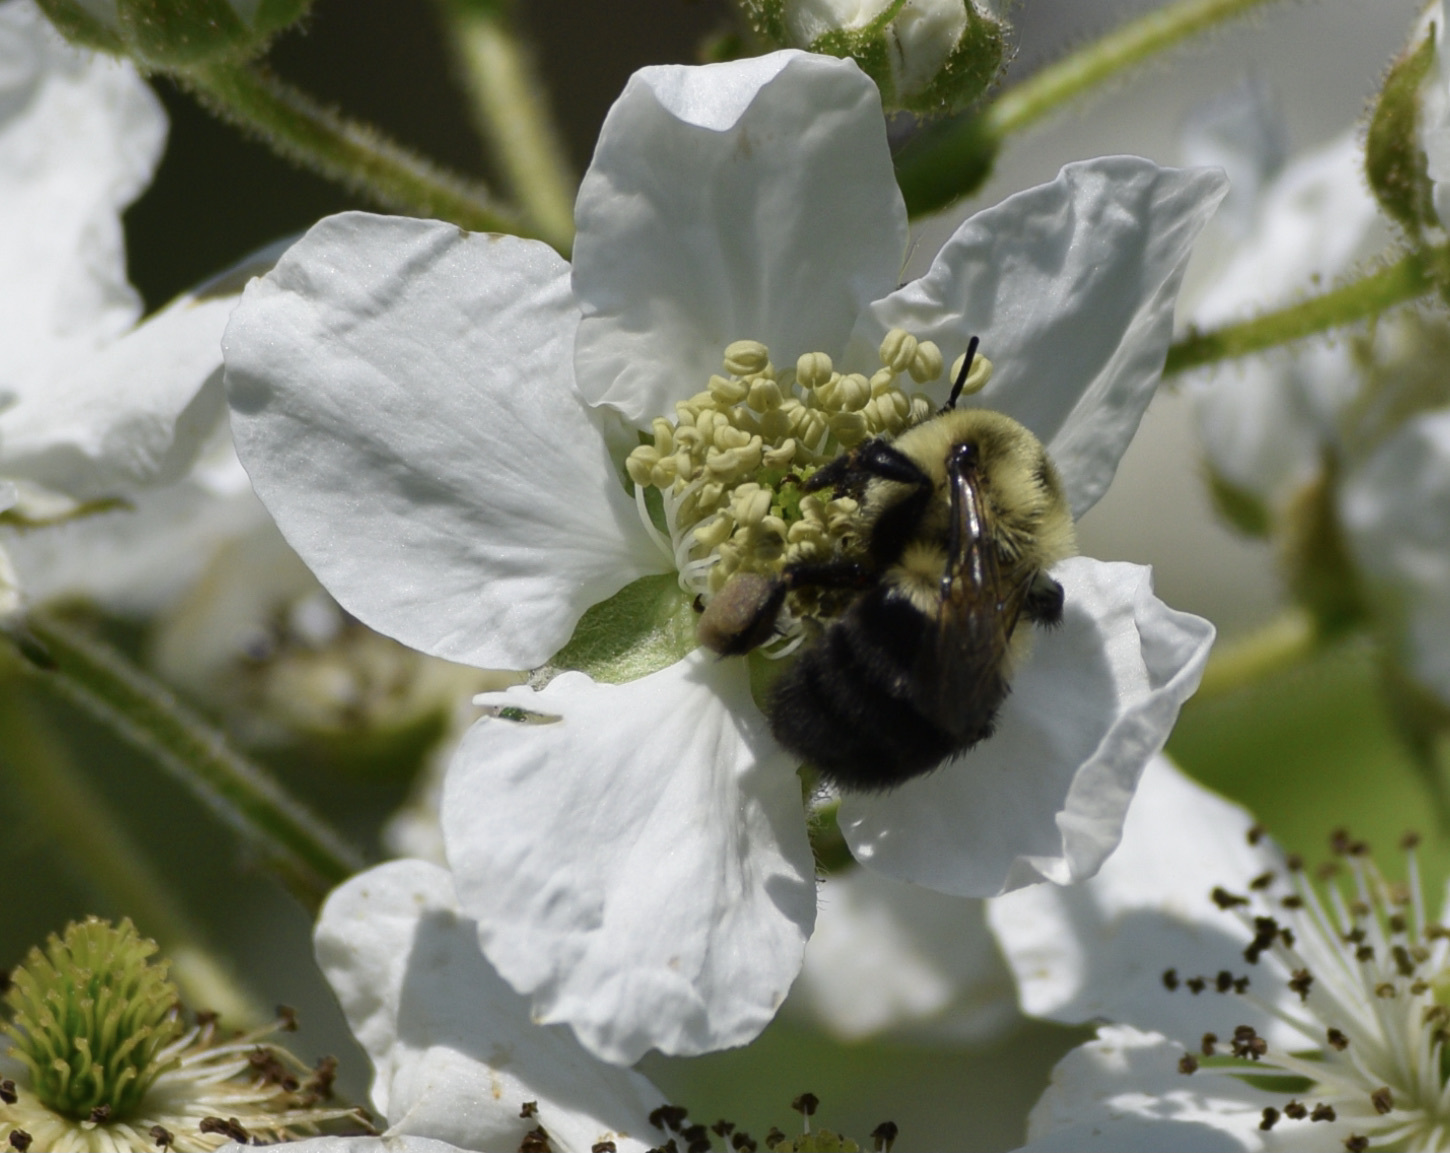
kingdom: Animalia
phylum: Arthropoda
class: Insecta
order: Hymenoptera
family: Apidae
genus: Bombus
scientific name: Bombus impatiens
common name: Common eastern bumble bee
